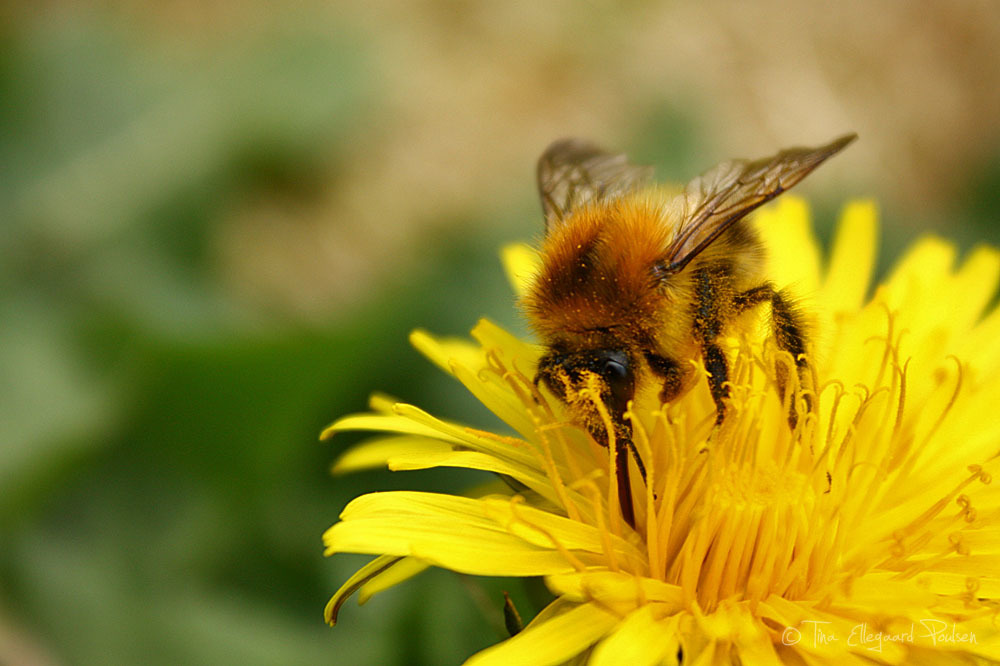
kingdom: Animalia
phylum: Arthropoda
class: Insecta
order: Hymenoptera
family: Apidae
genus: Bombus
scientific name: Bombus pascuorum
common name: Common carder bee
